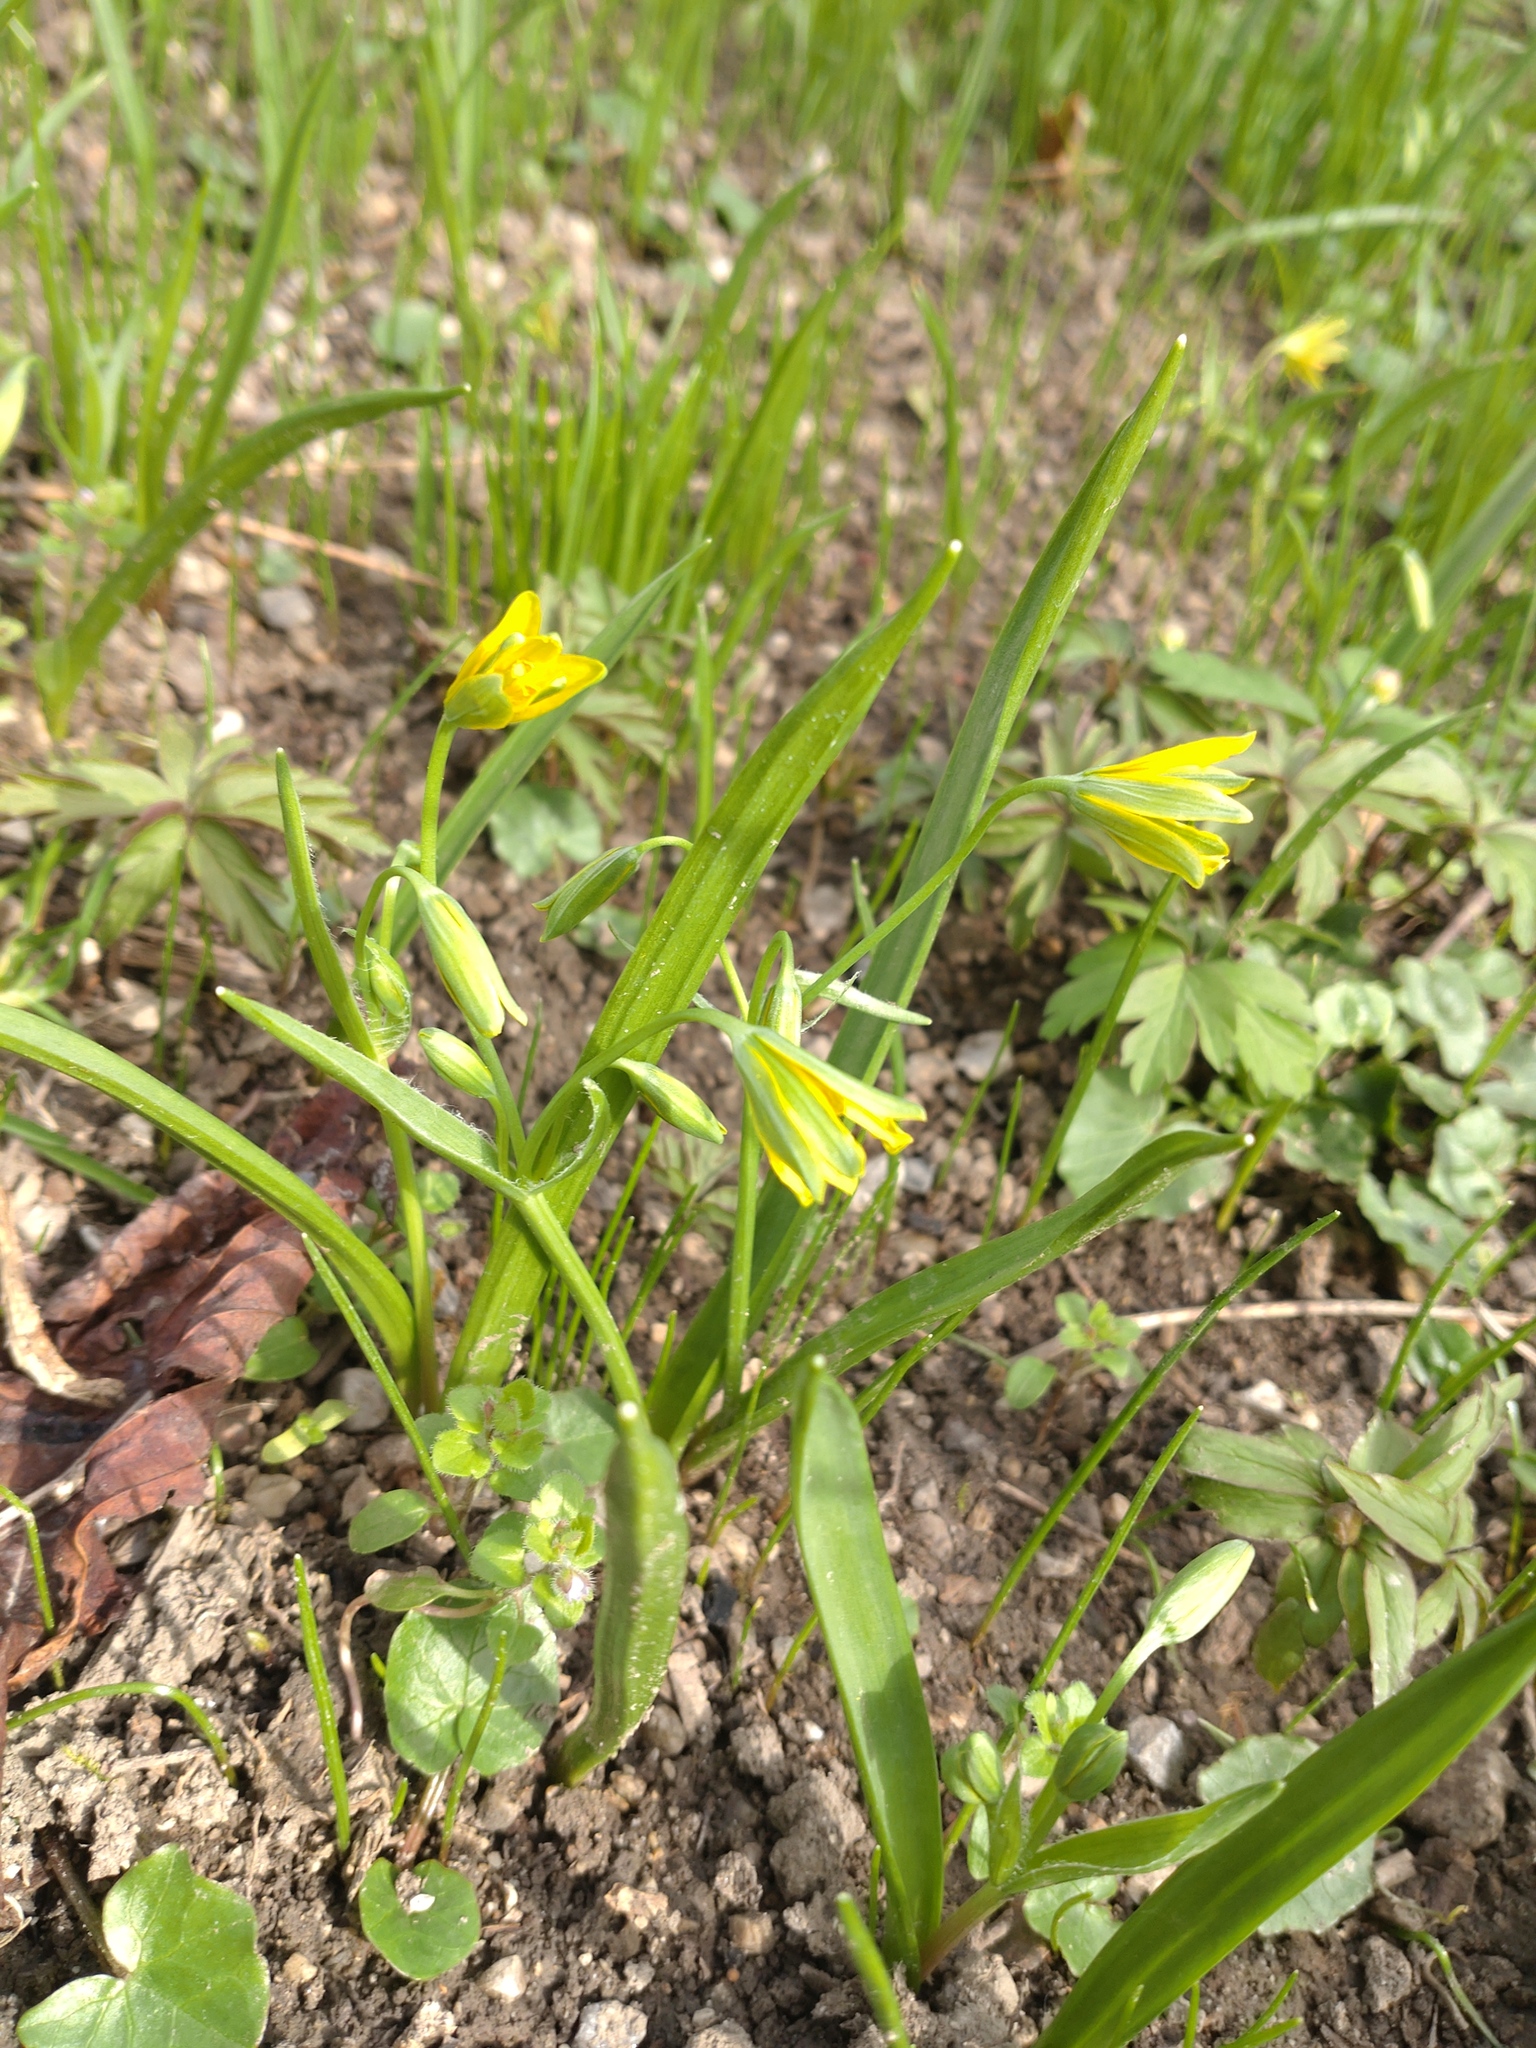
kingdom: Plantae
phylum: Tracheophyta
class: Liliopsida
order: Liliales
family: Liliaceae
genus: Gagea
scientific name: Gagea lutea
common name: Yellow star-of-bethlehem
